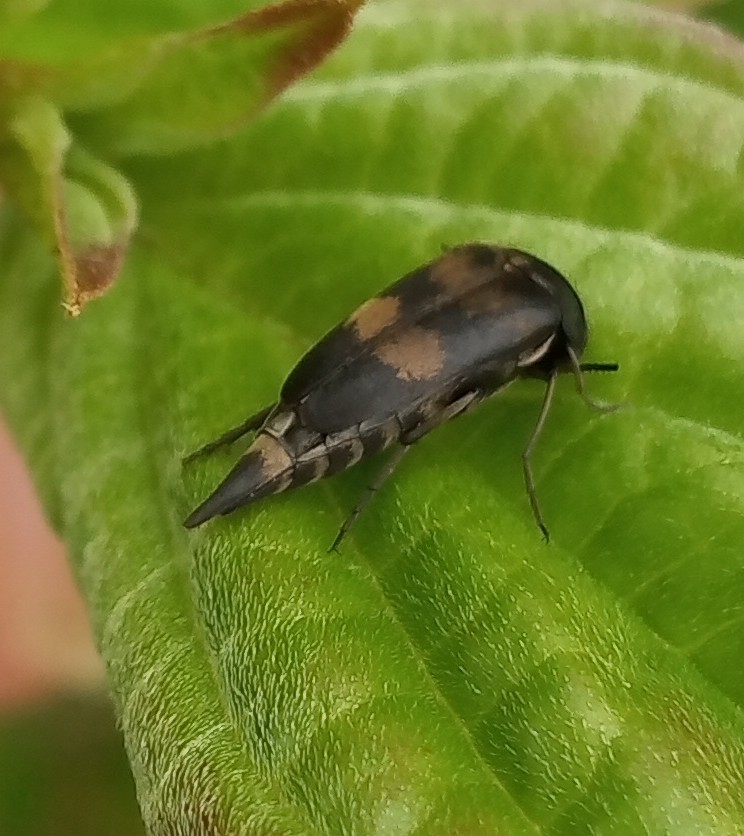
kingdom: Animalia
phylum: Arthropoda
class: Insecta
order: Coleoptera
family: Mordellidae
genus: Variimorda
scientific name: Variimorda villosa
